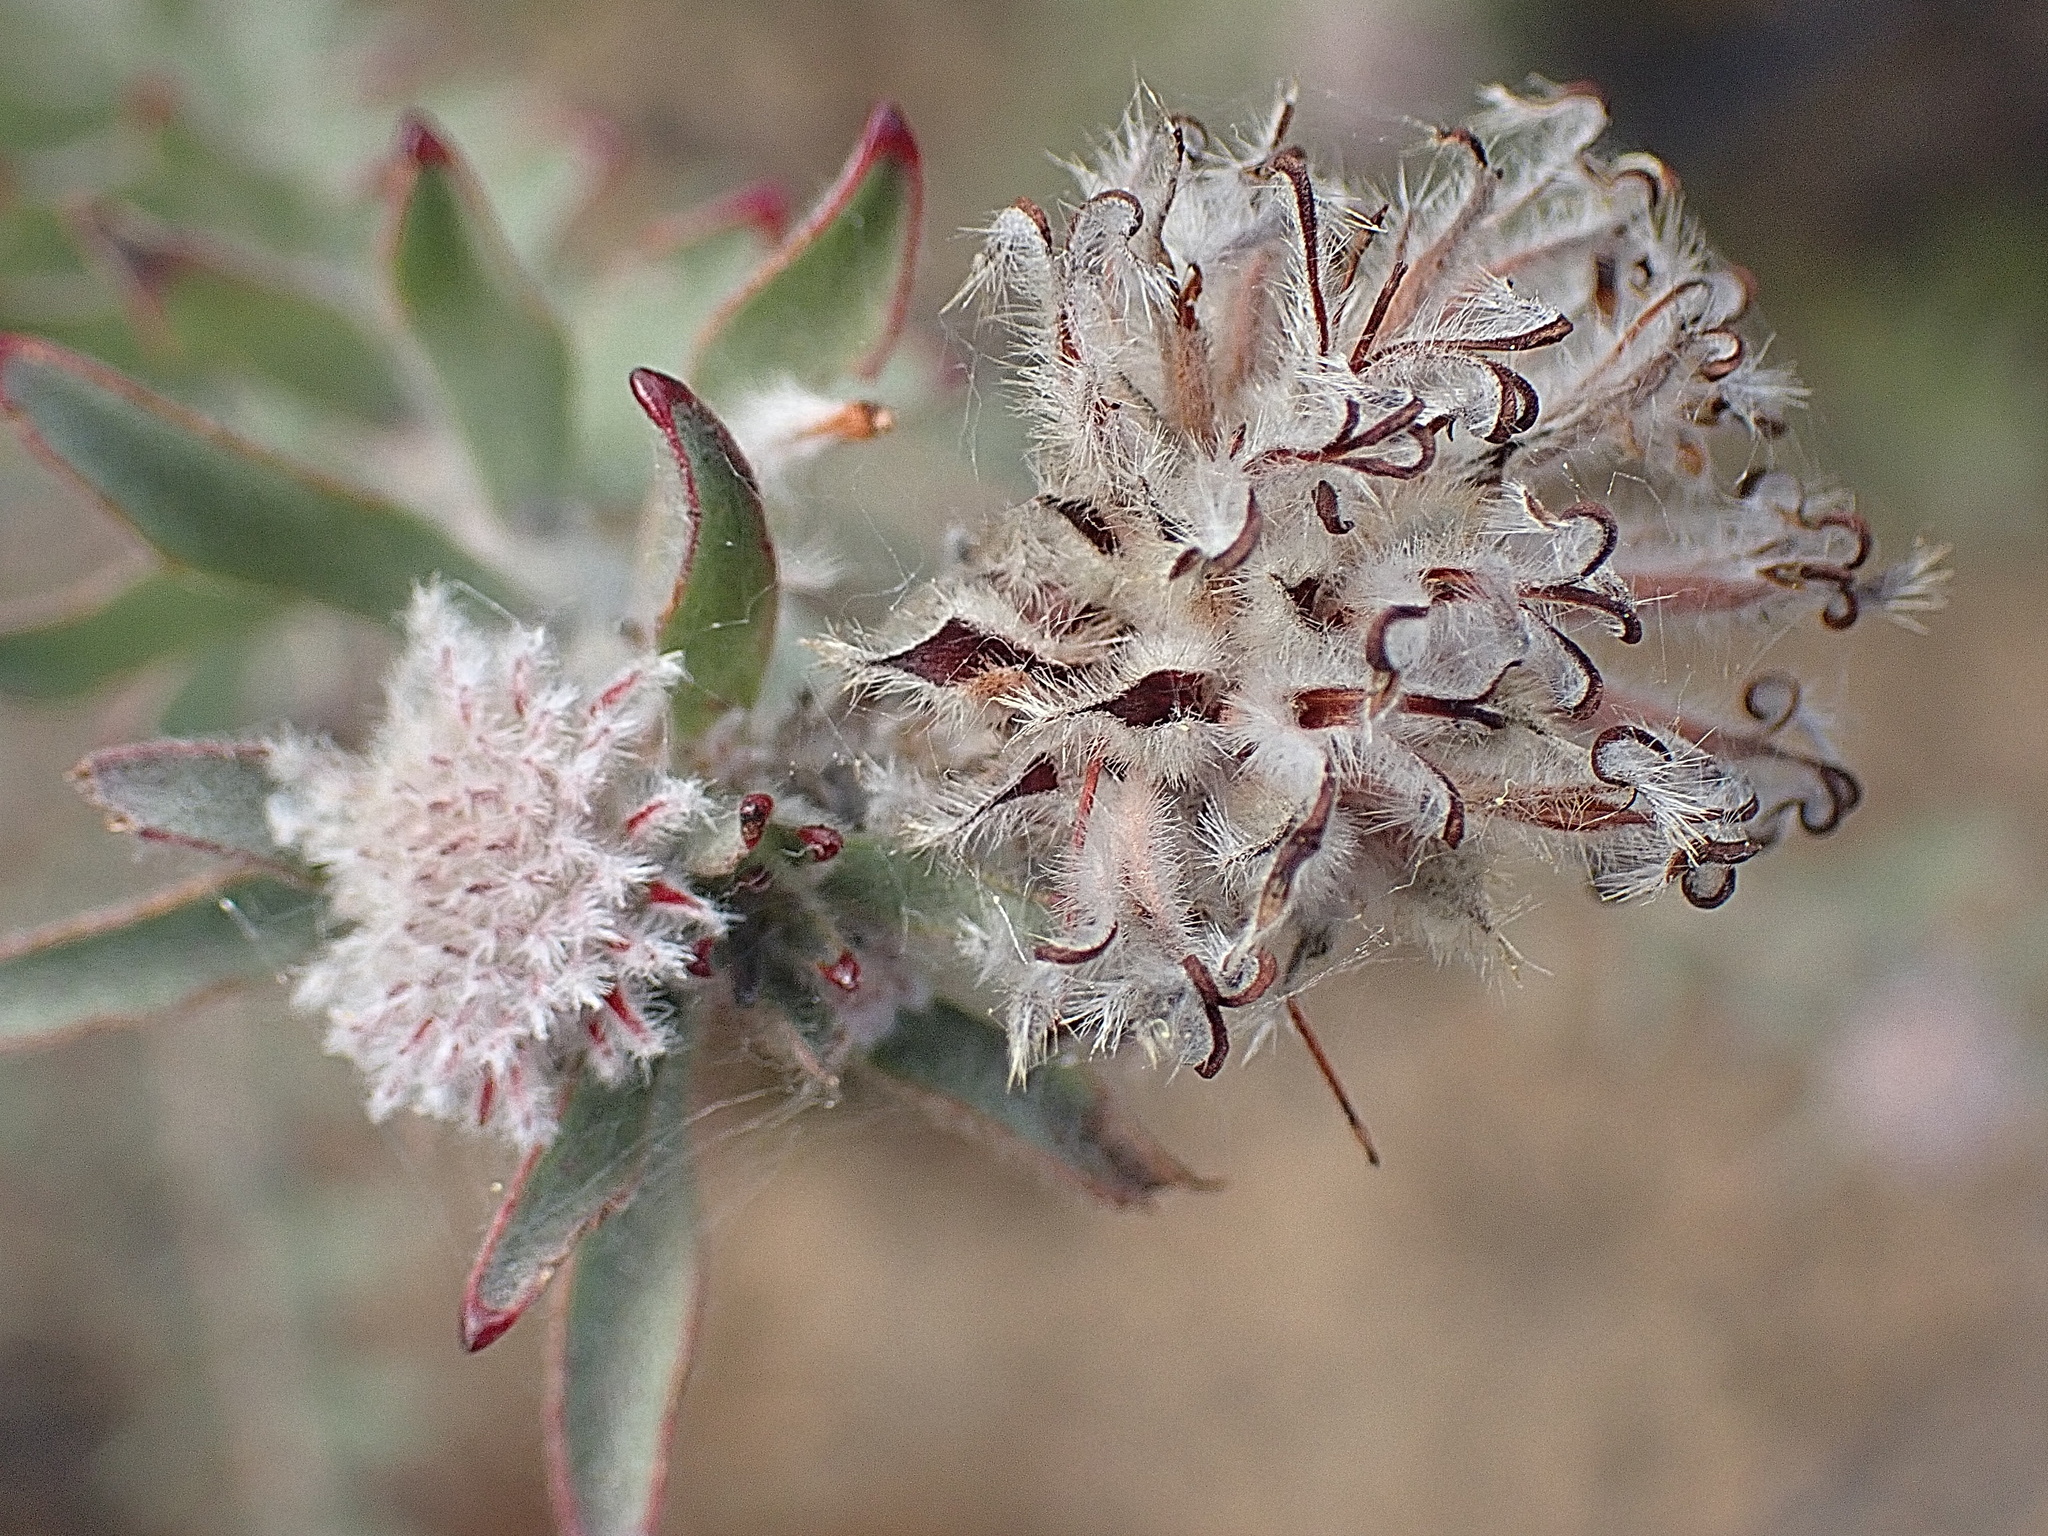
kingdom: Plantae
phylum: Tracheophyta
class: Magnoliopsida
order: Proteales
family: Proteaceae
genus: Leucospermum
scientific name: Leucospermum calligerum
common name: Arid pincushion
